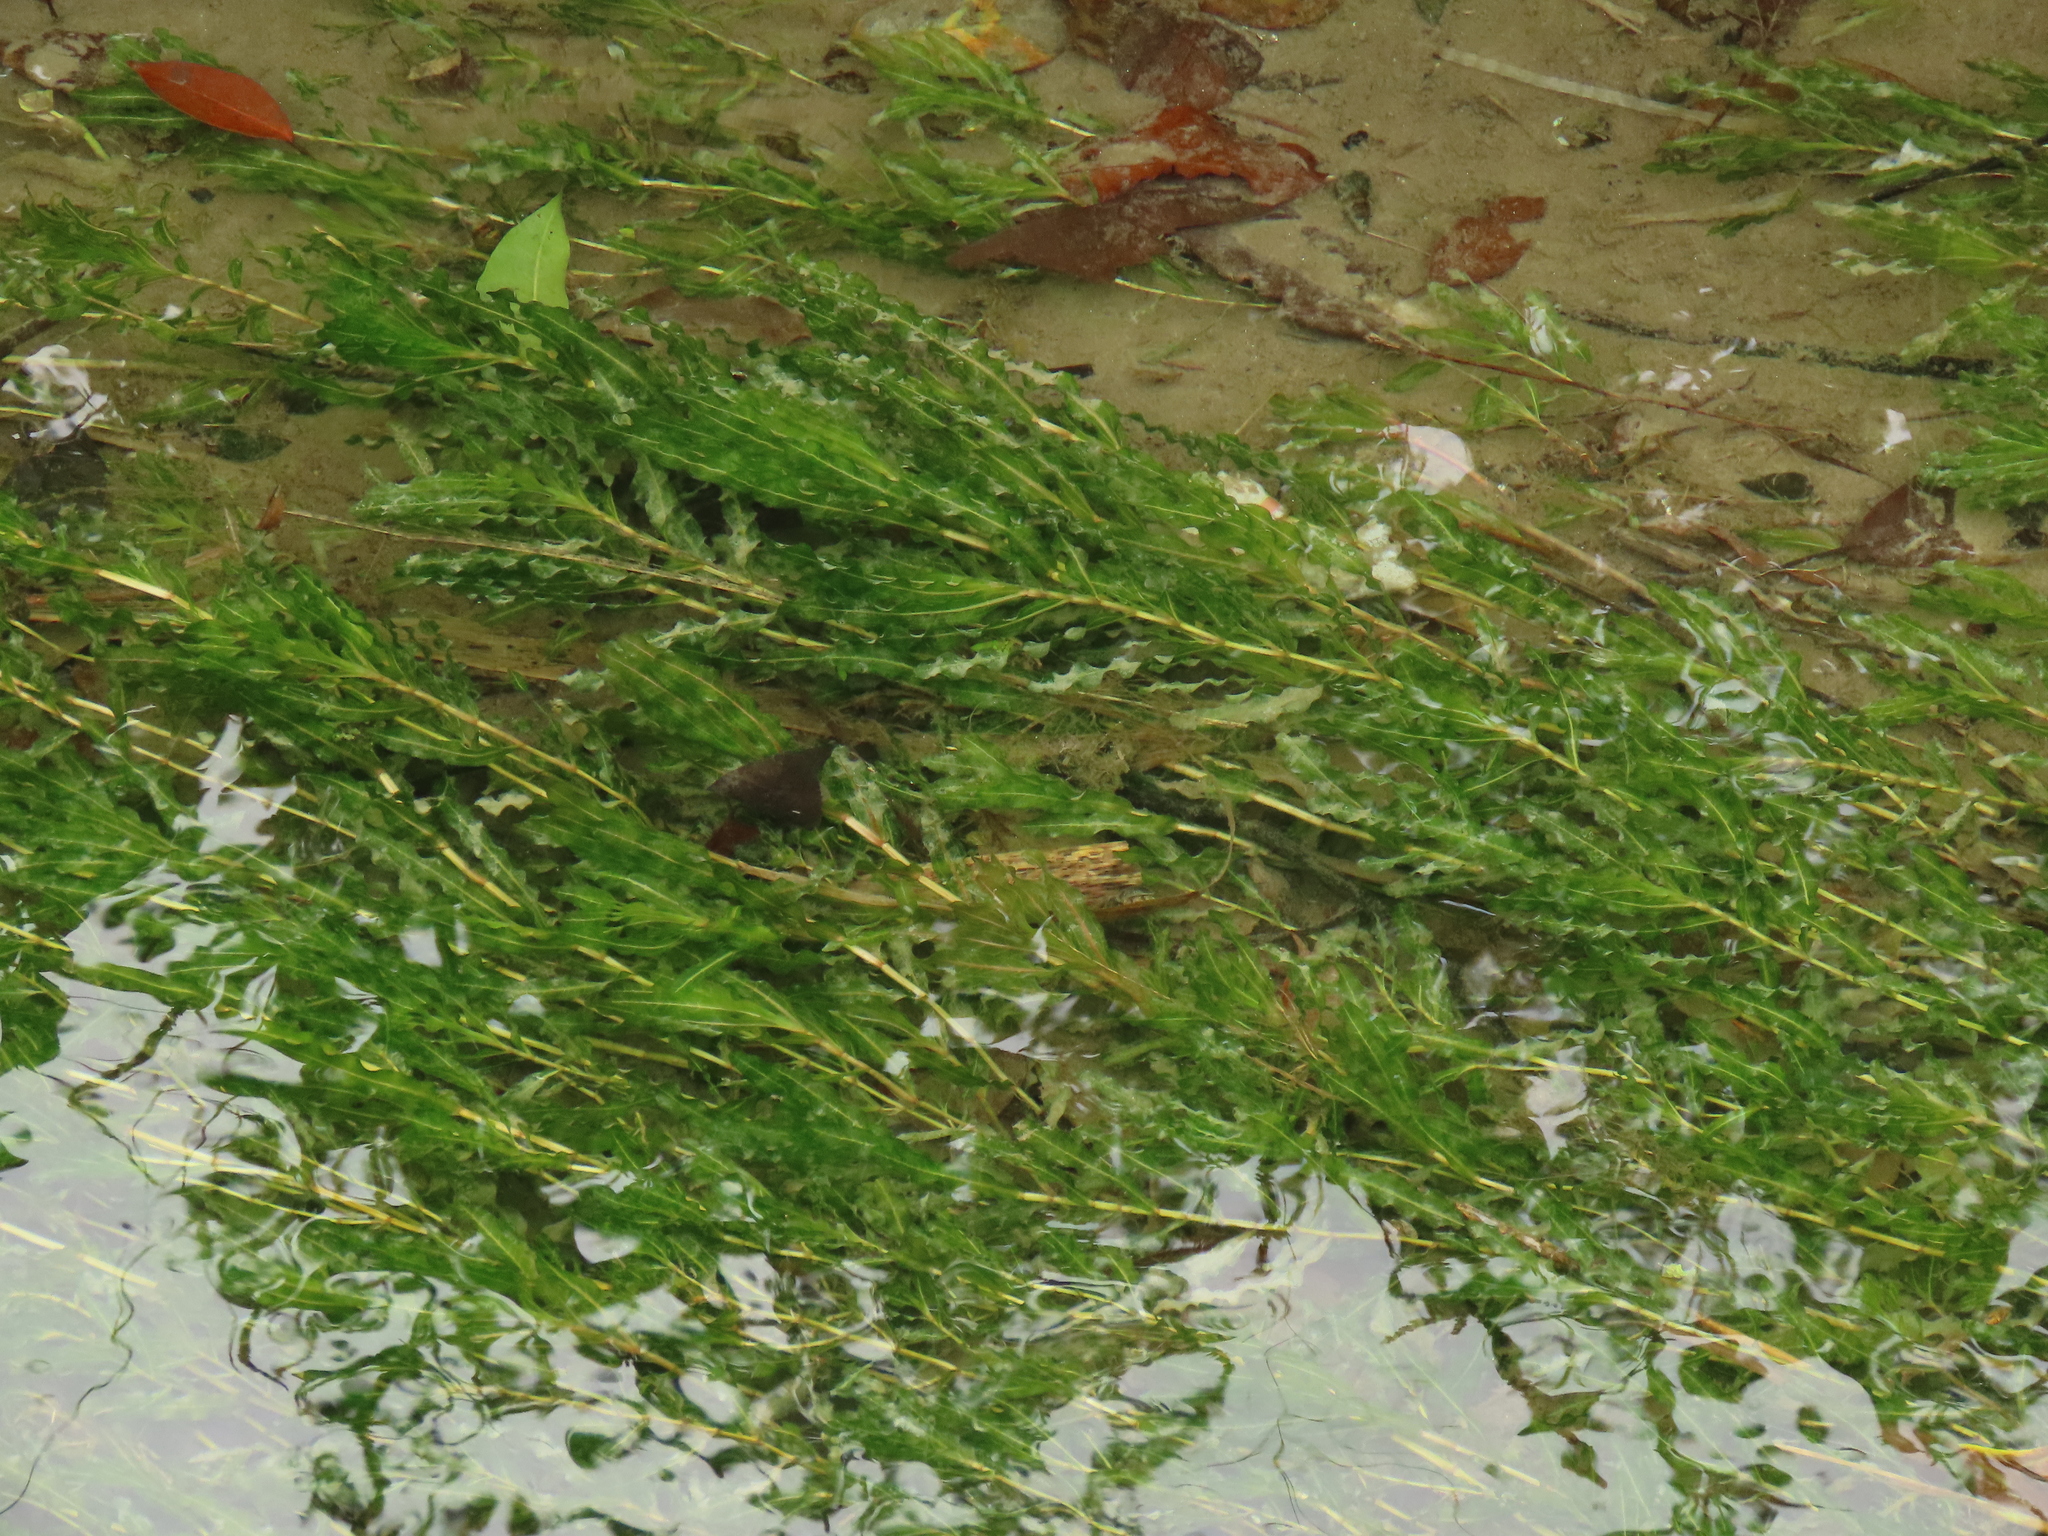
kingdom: Plantae
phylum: Tracheophyta
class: Liliopsida
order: Alismatales
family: Potamogetonaceae
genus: Potamogeton
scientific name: Potamogeton crispus
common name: Curled pondweed
